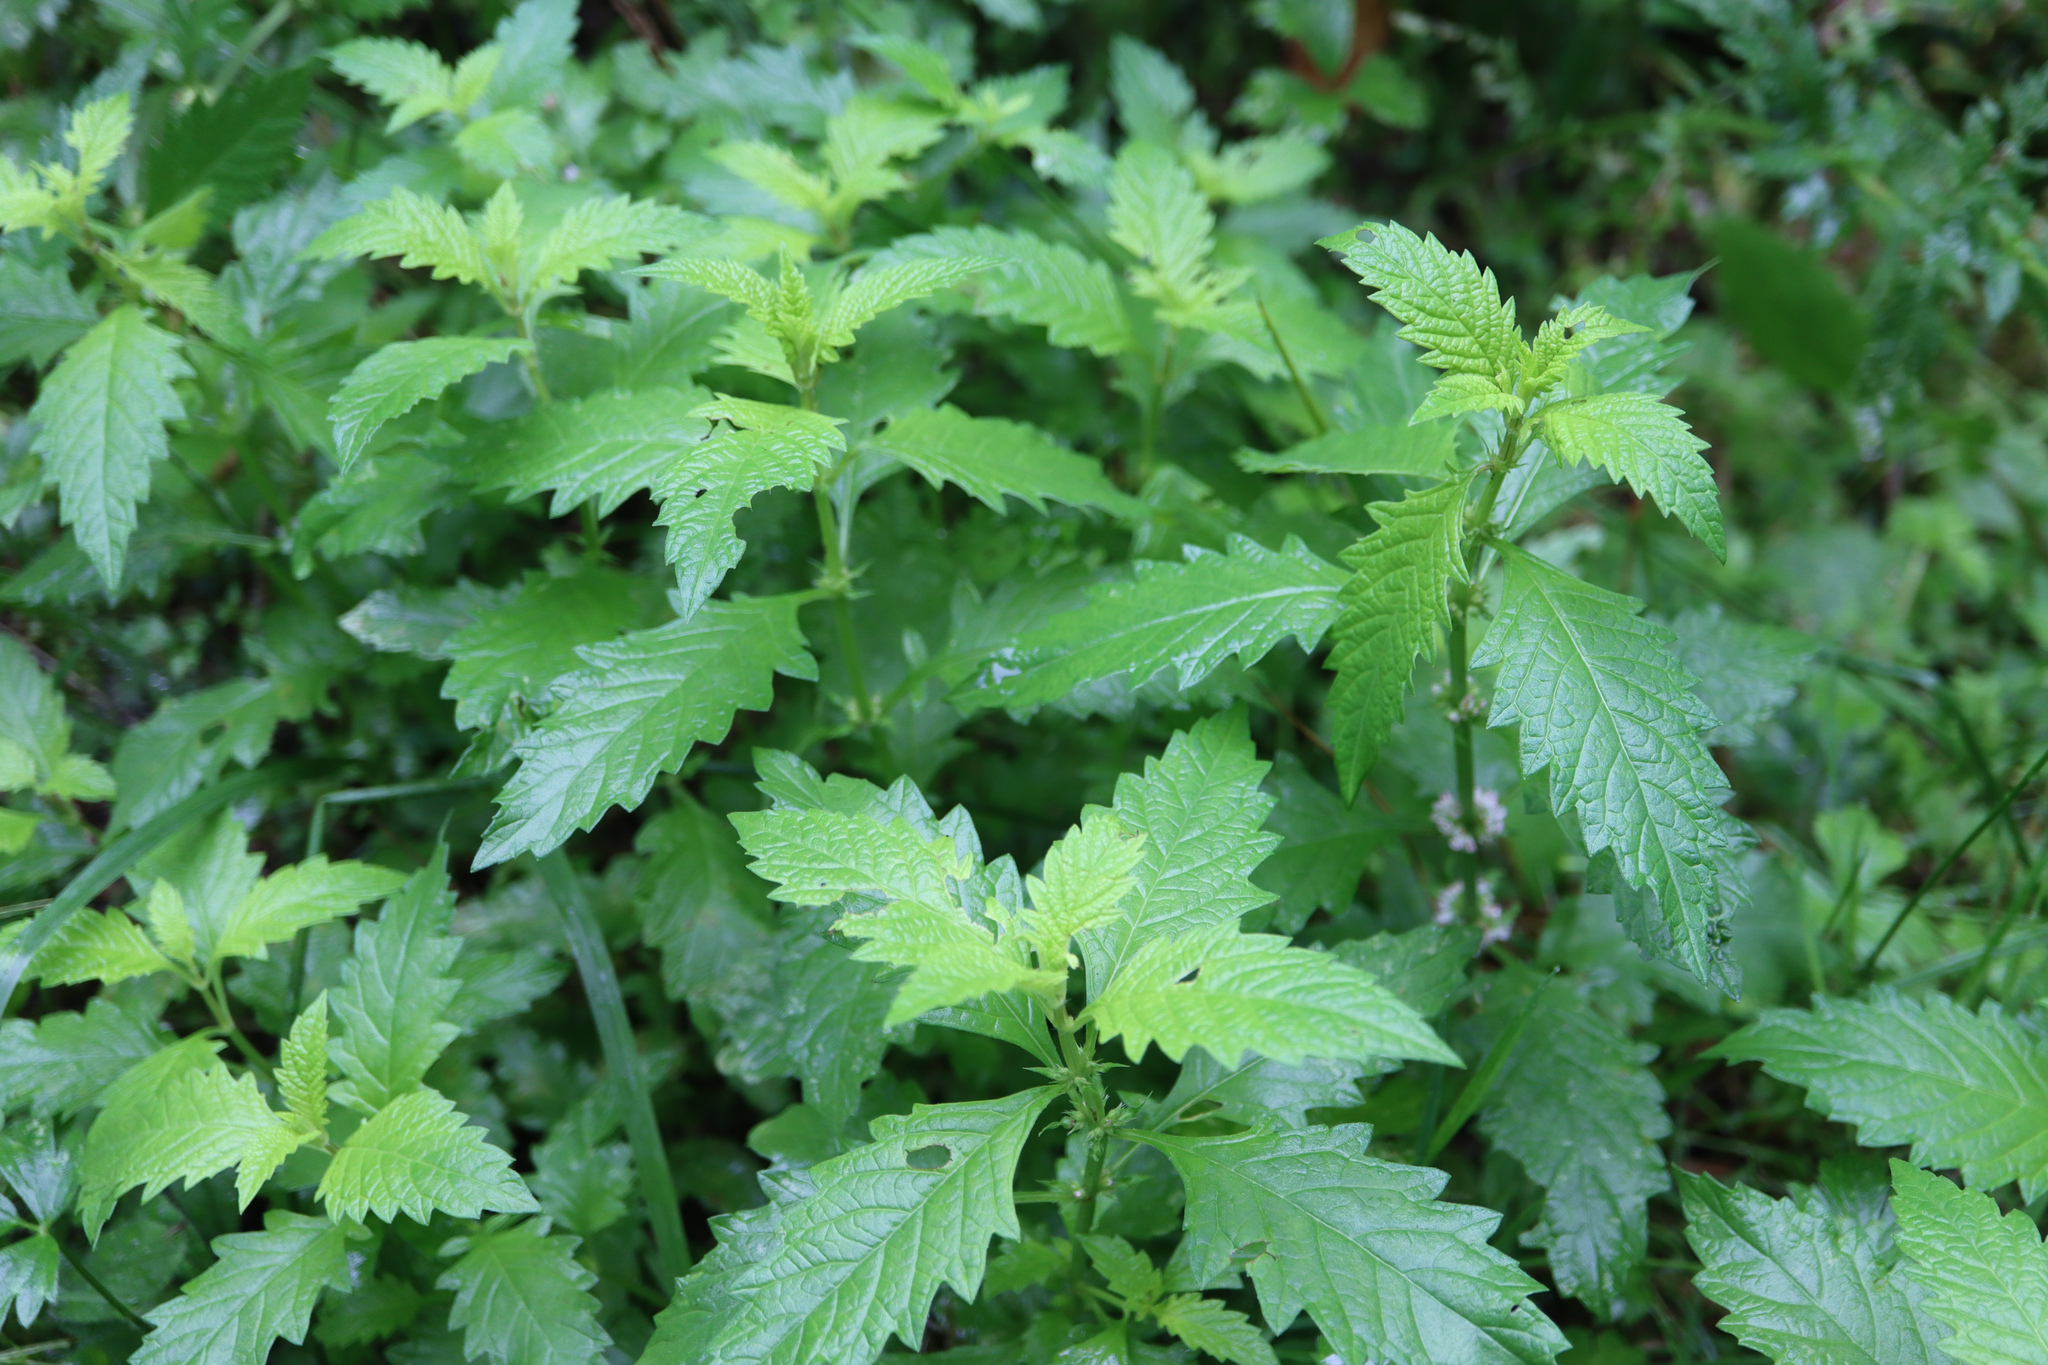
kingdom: Plantae
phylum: Tracheophyta
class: Magnoliopsida
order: Lamiales
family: Lamiaceae
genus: Lycopus
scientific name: Lycopus europaeus
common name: European bugleweed
